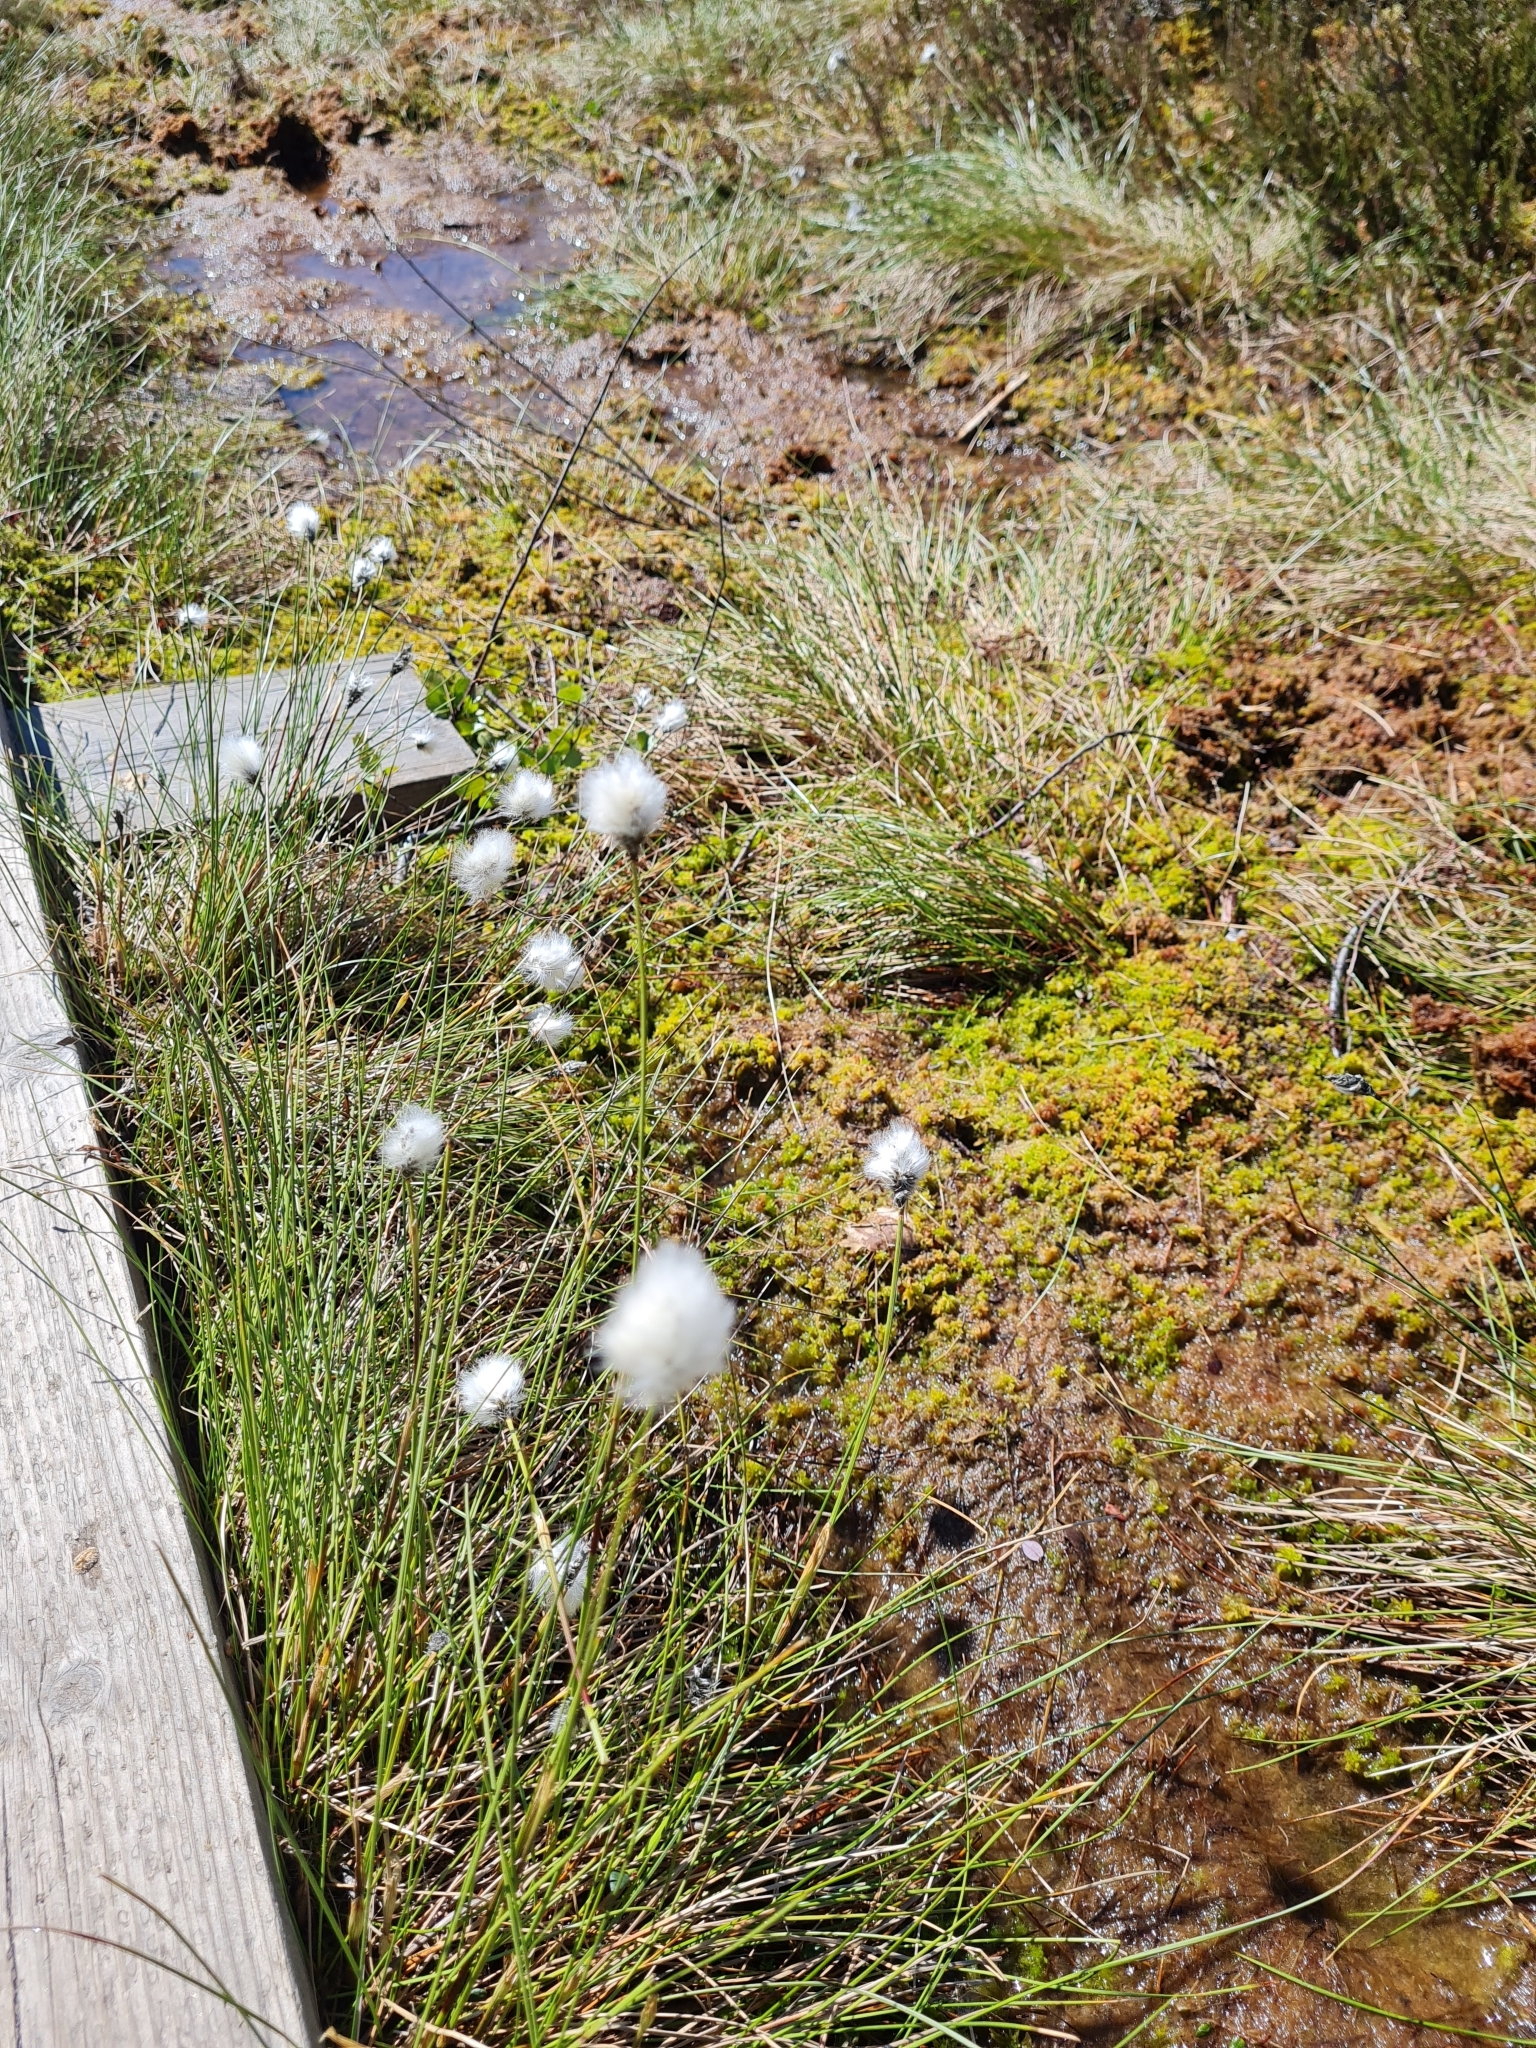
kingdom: Plantae
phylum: Tracheophyta
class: Liliopsida
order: Poales
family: Cyperaceae
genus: Eriophorum
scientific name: Eriophorum vaginatum
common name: Hare's-tail cottongrass
